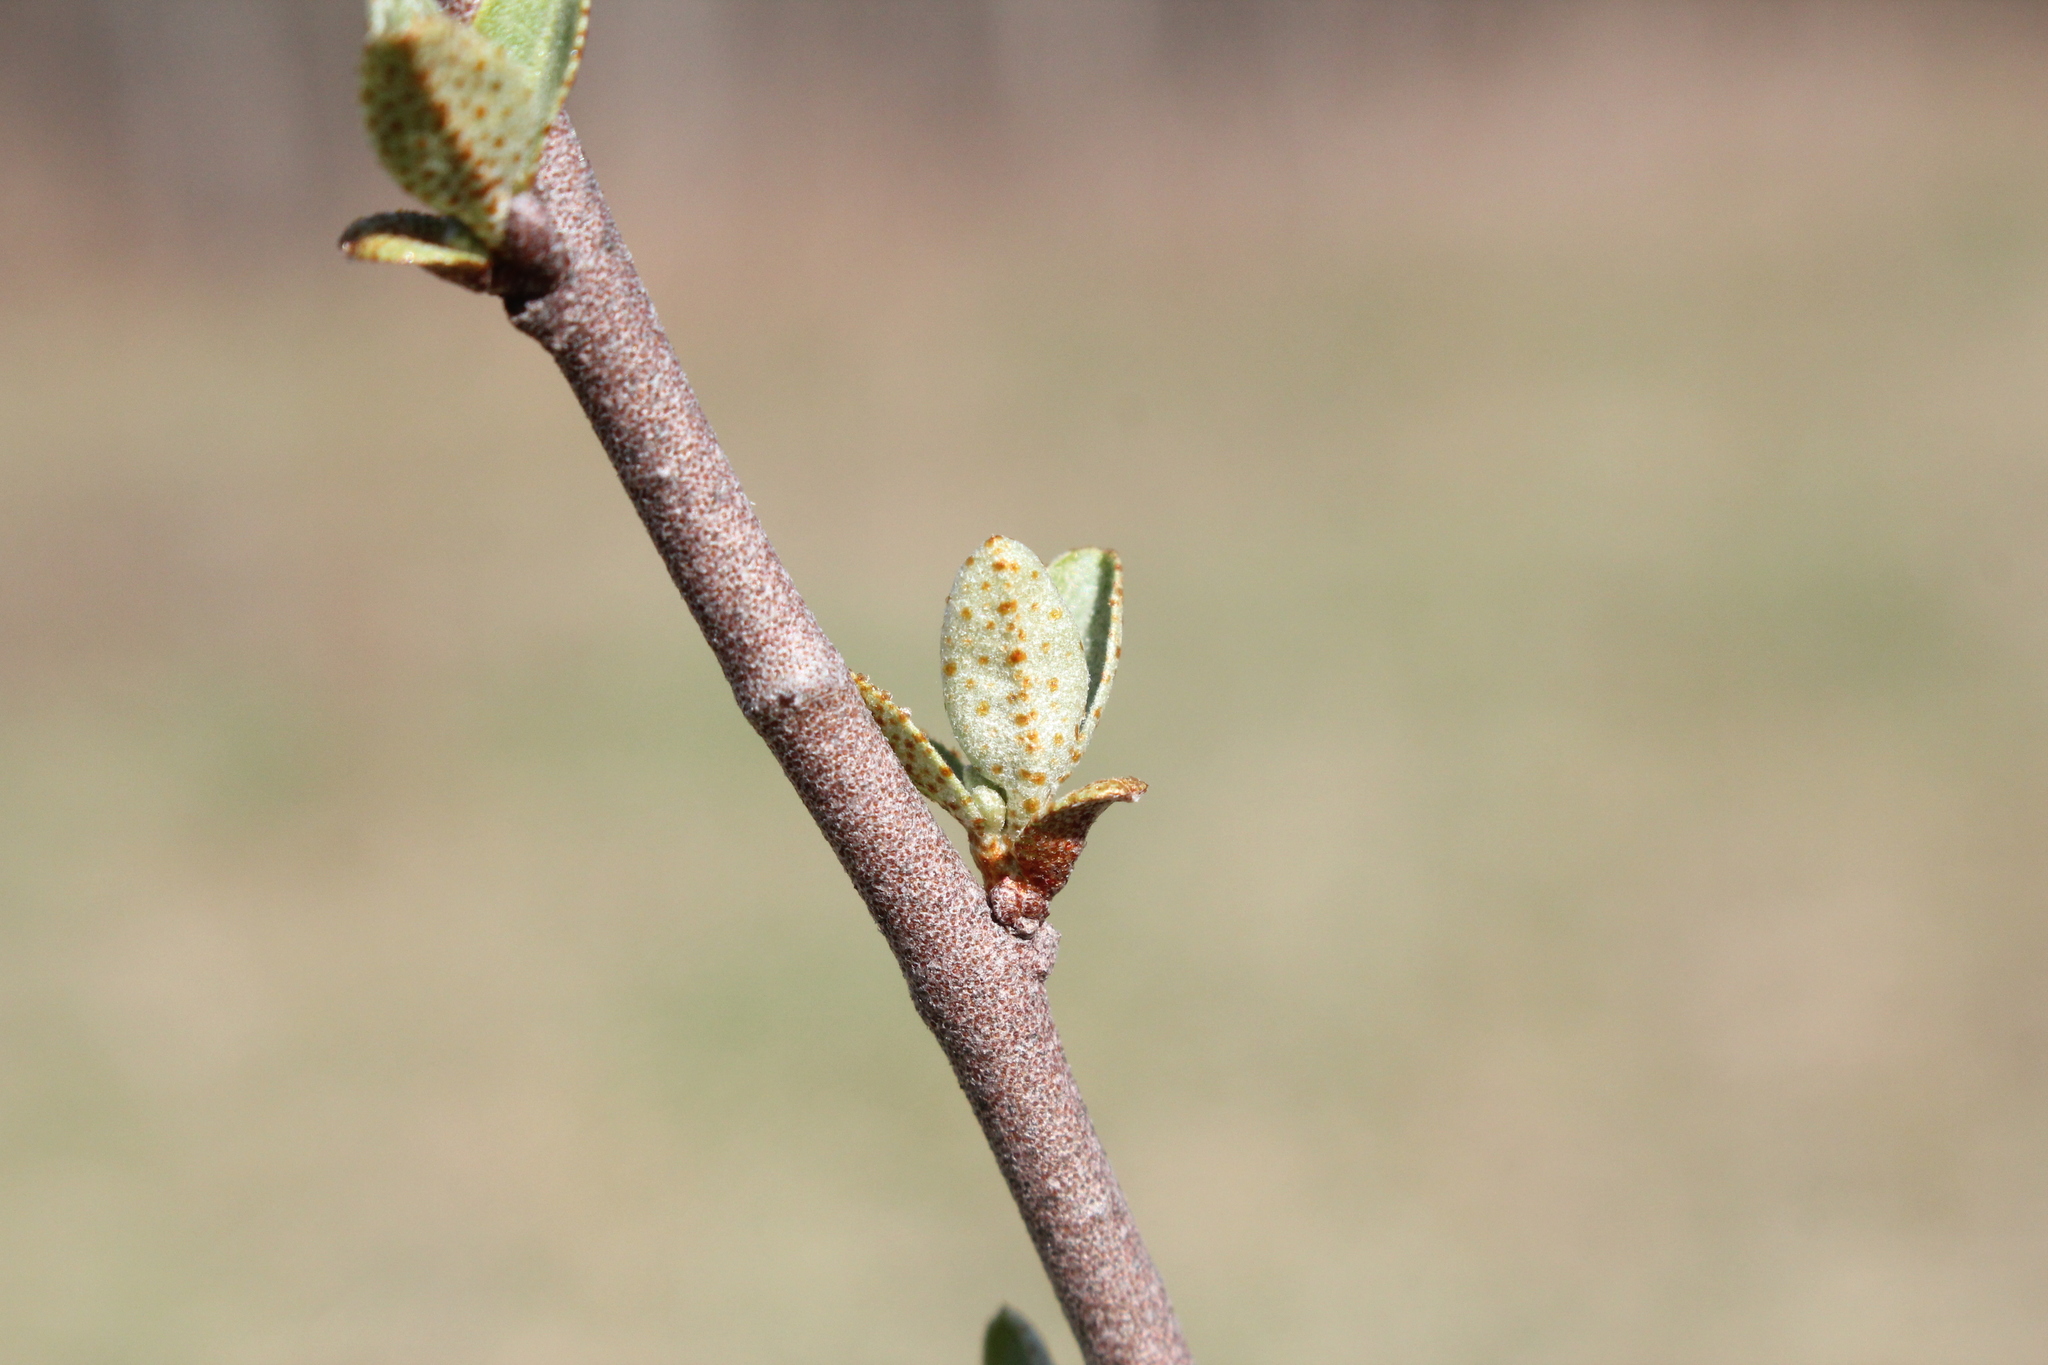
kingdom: Plantae
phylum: Tracheophyta
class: Magnoliopsida
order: Rosales
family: Elaeagnaceae
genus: Elaeagnus
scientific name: Elaeagnus umbellata
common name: Autumn olive
